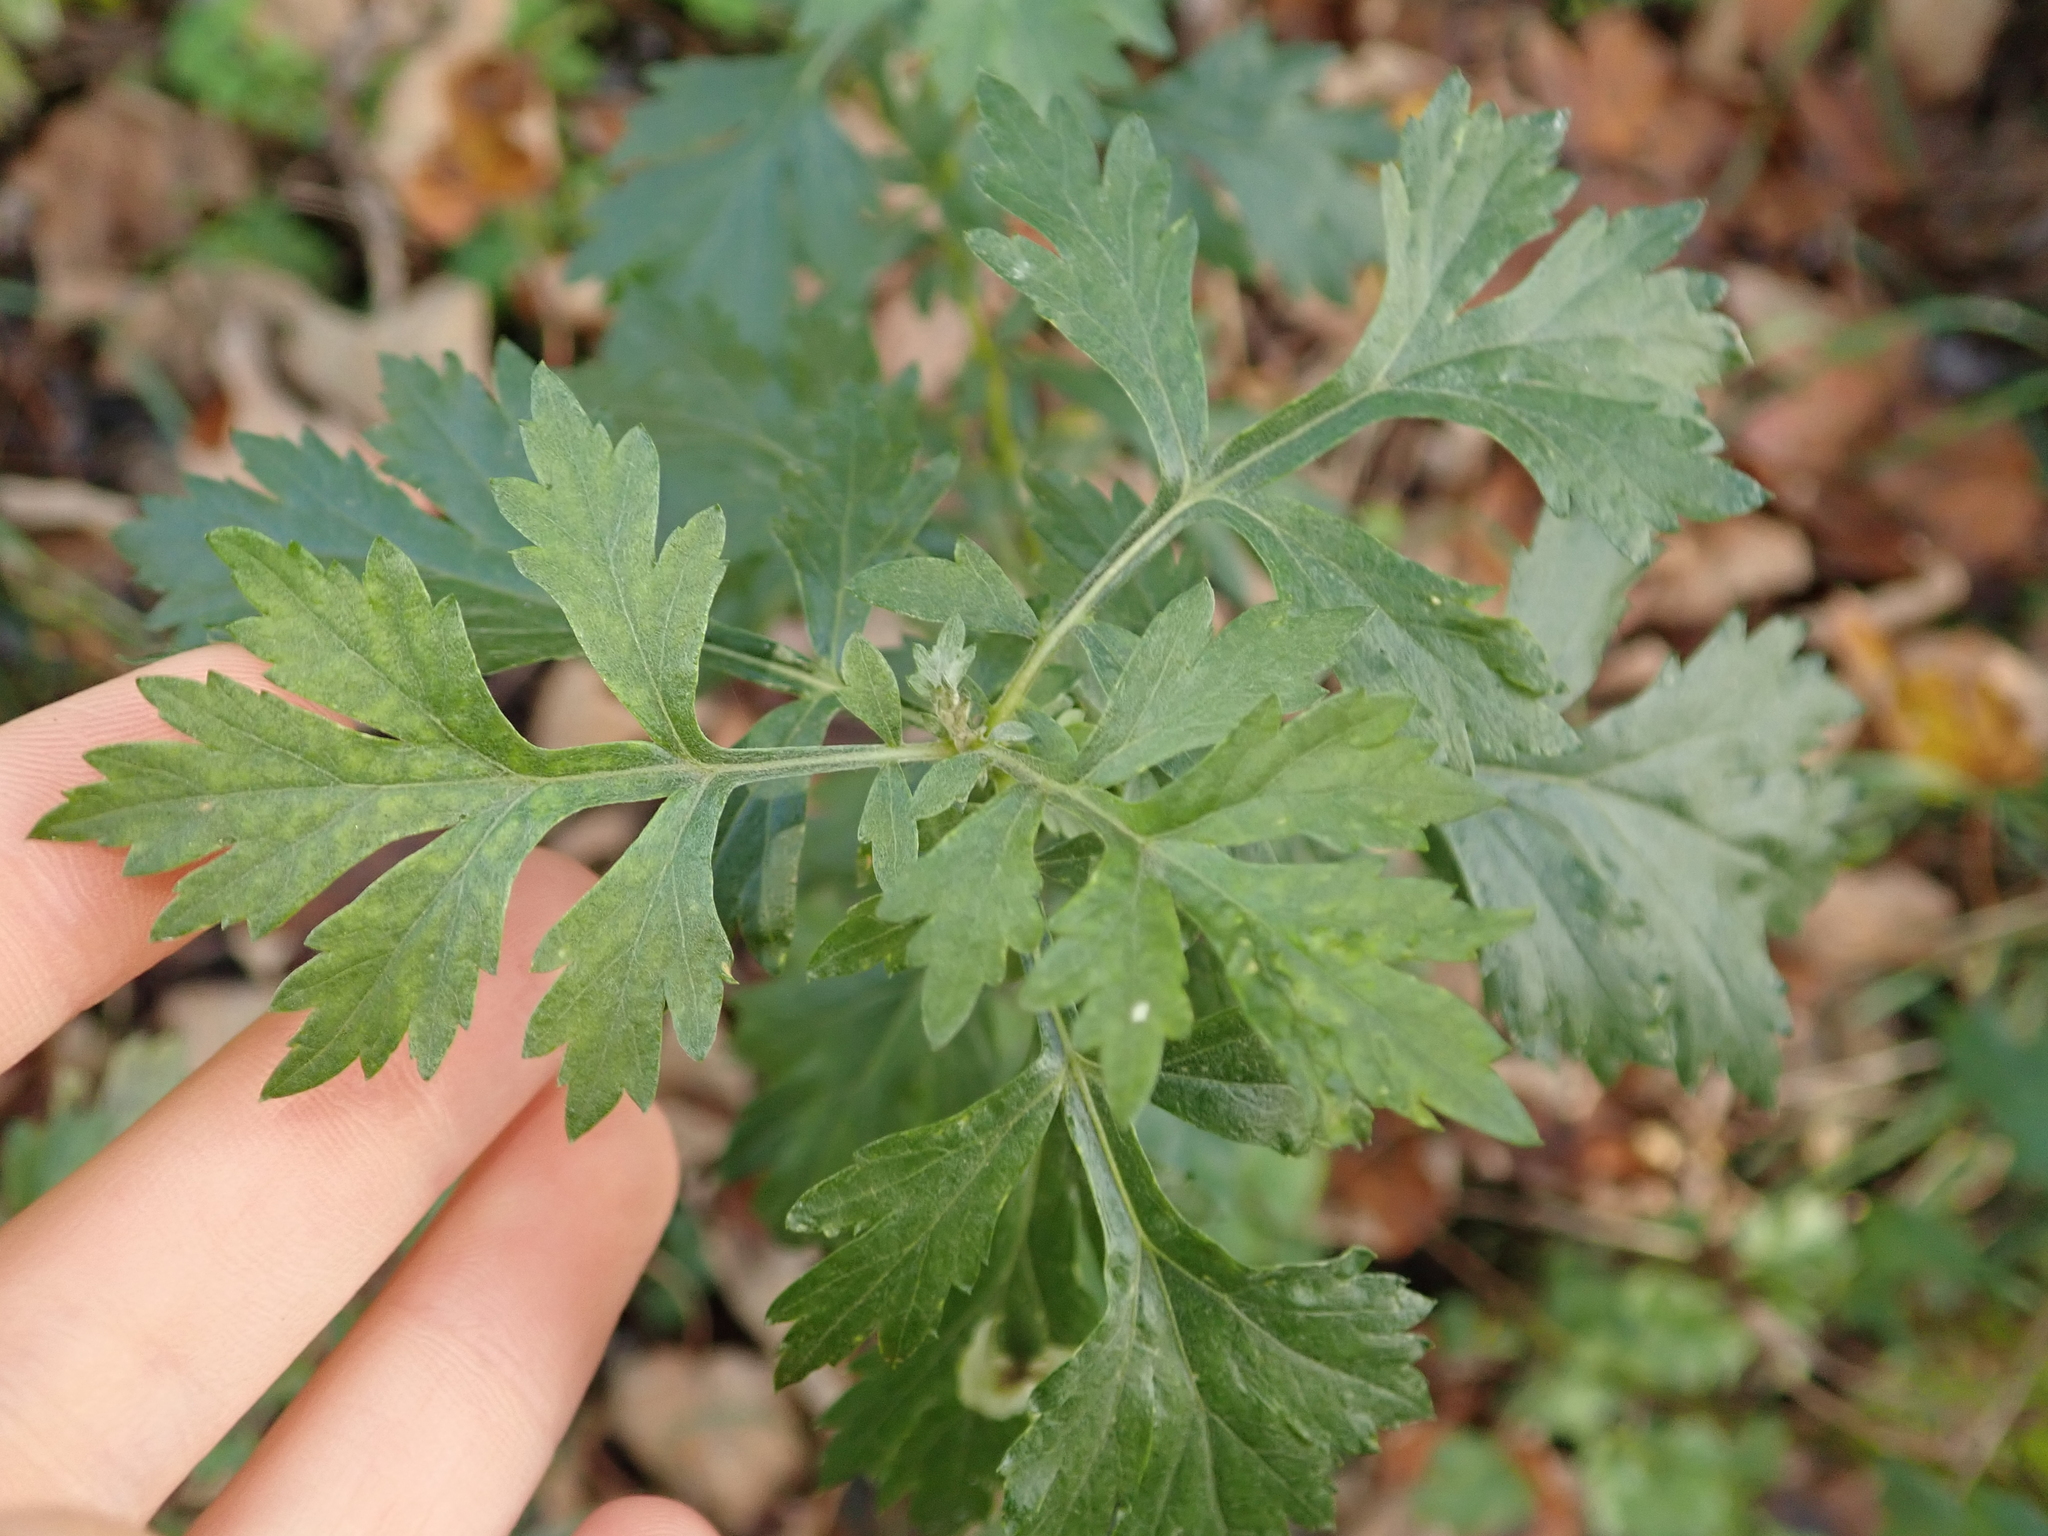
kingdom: Plantae
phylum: Tracheophyta
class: Magnoliopsida
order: Asterales
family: Asteraceae
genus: Artemisia
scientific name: Artemisia vulgaris
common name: Mugwort
